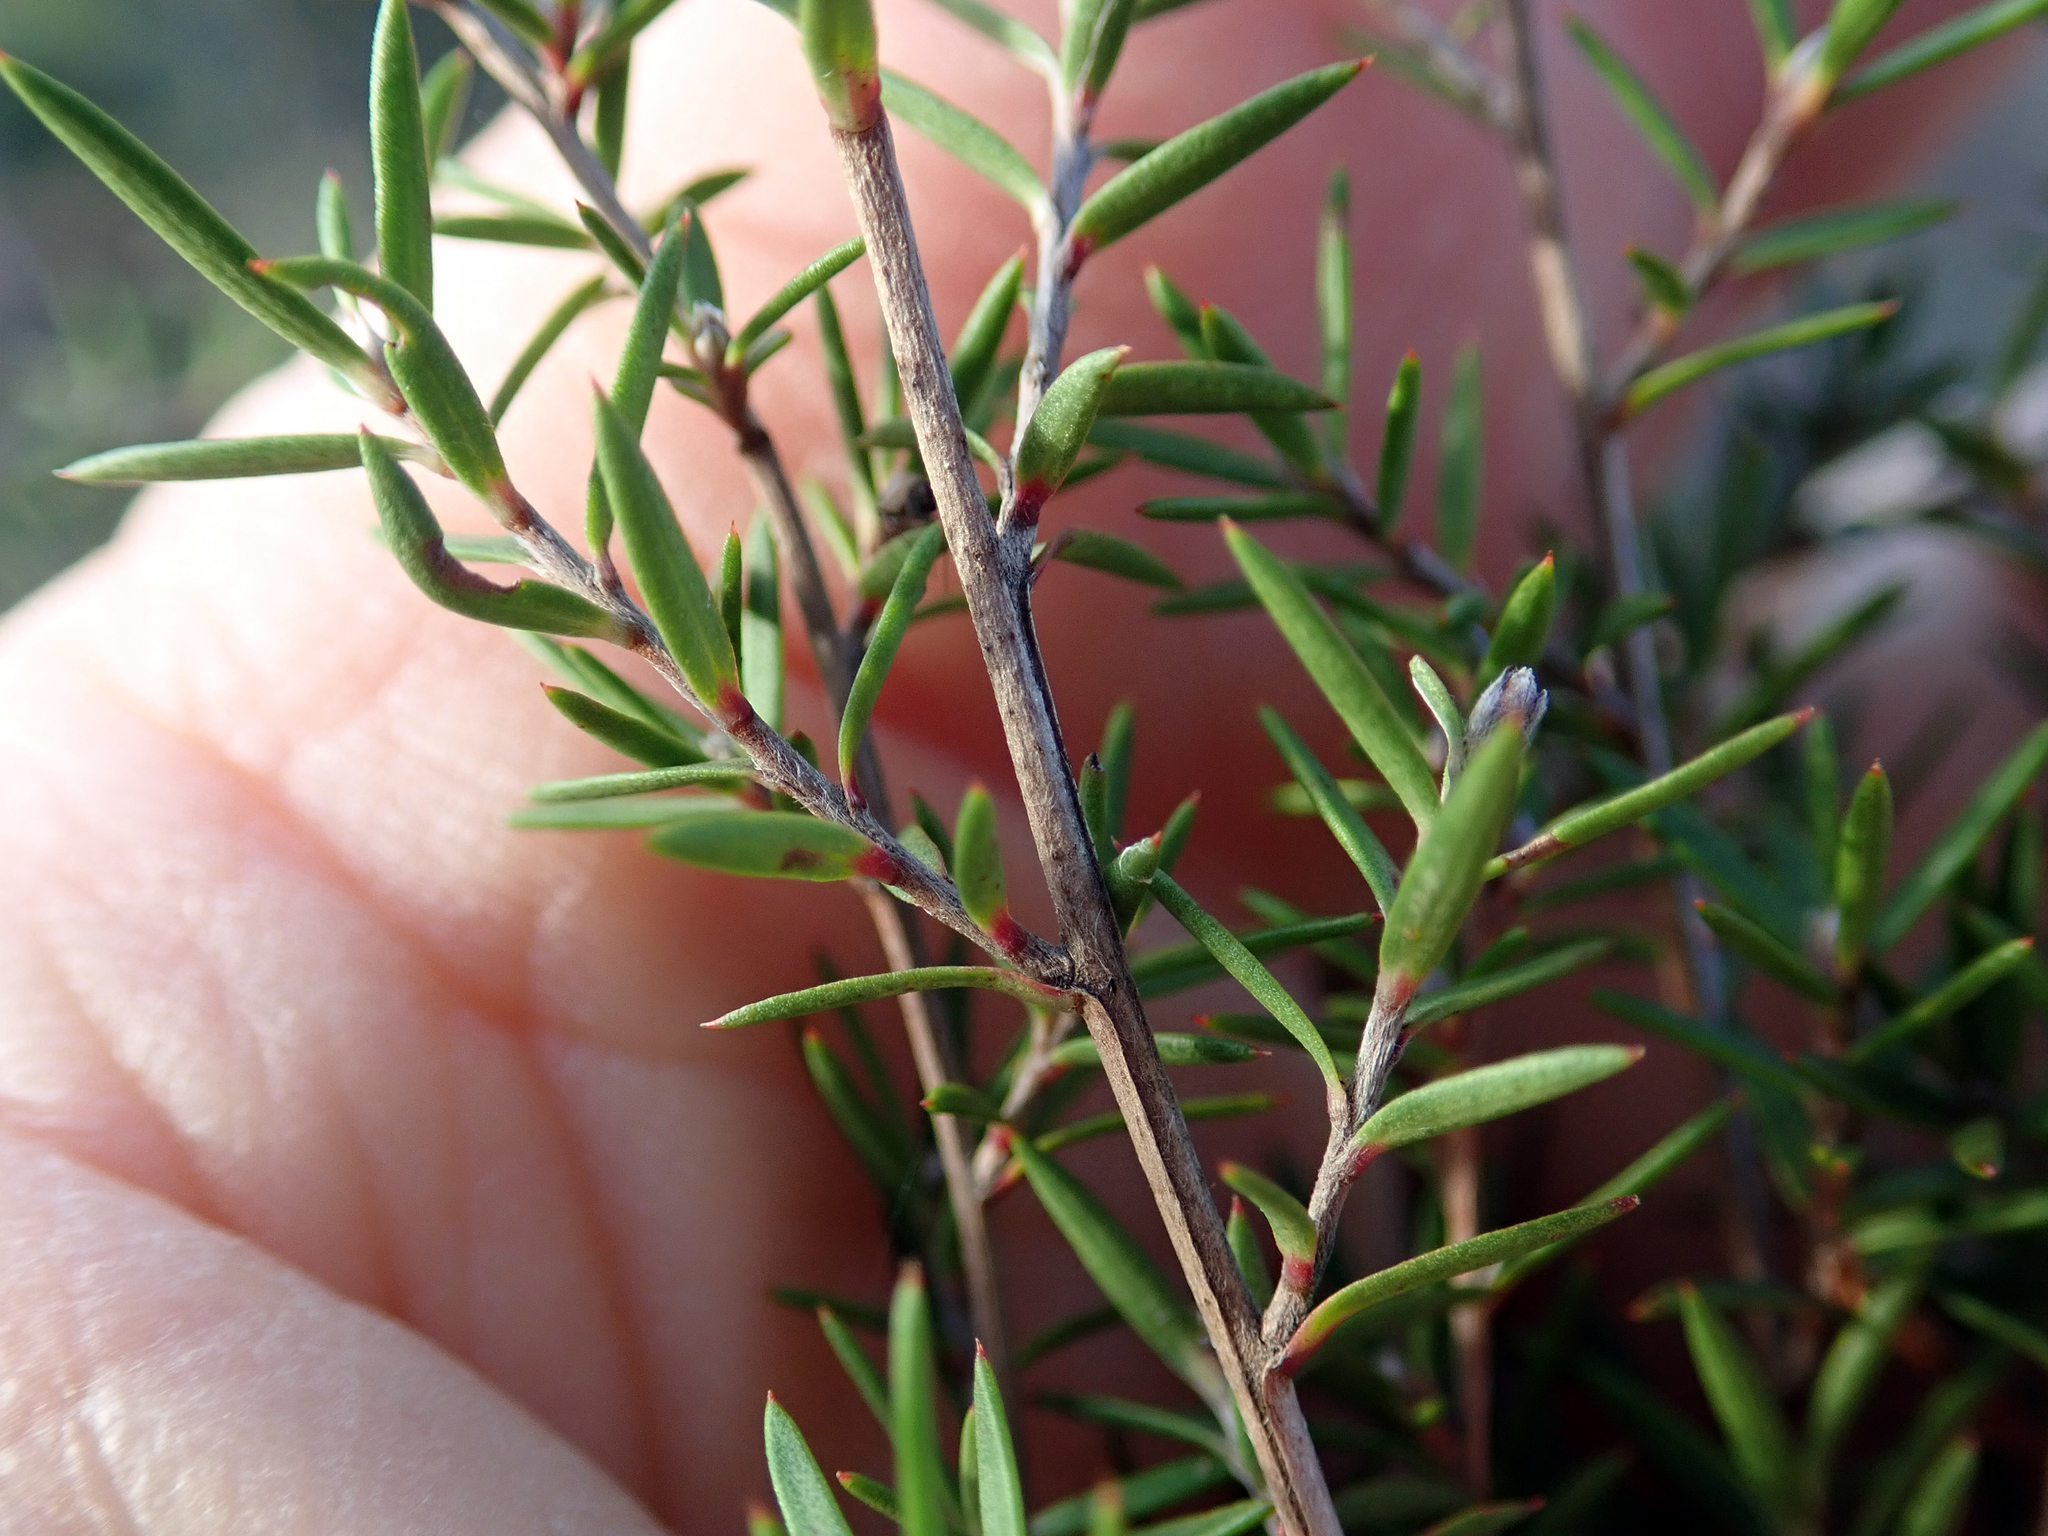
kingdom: Plantae
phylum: Tracheophyta
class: Magnoliopsida
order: Myrtales
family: Myrtaceae
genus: Leptospermum
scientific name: Leptospermum repo
